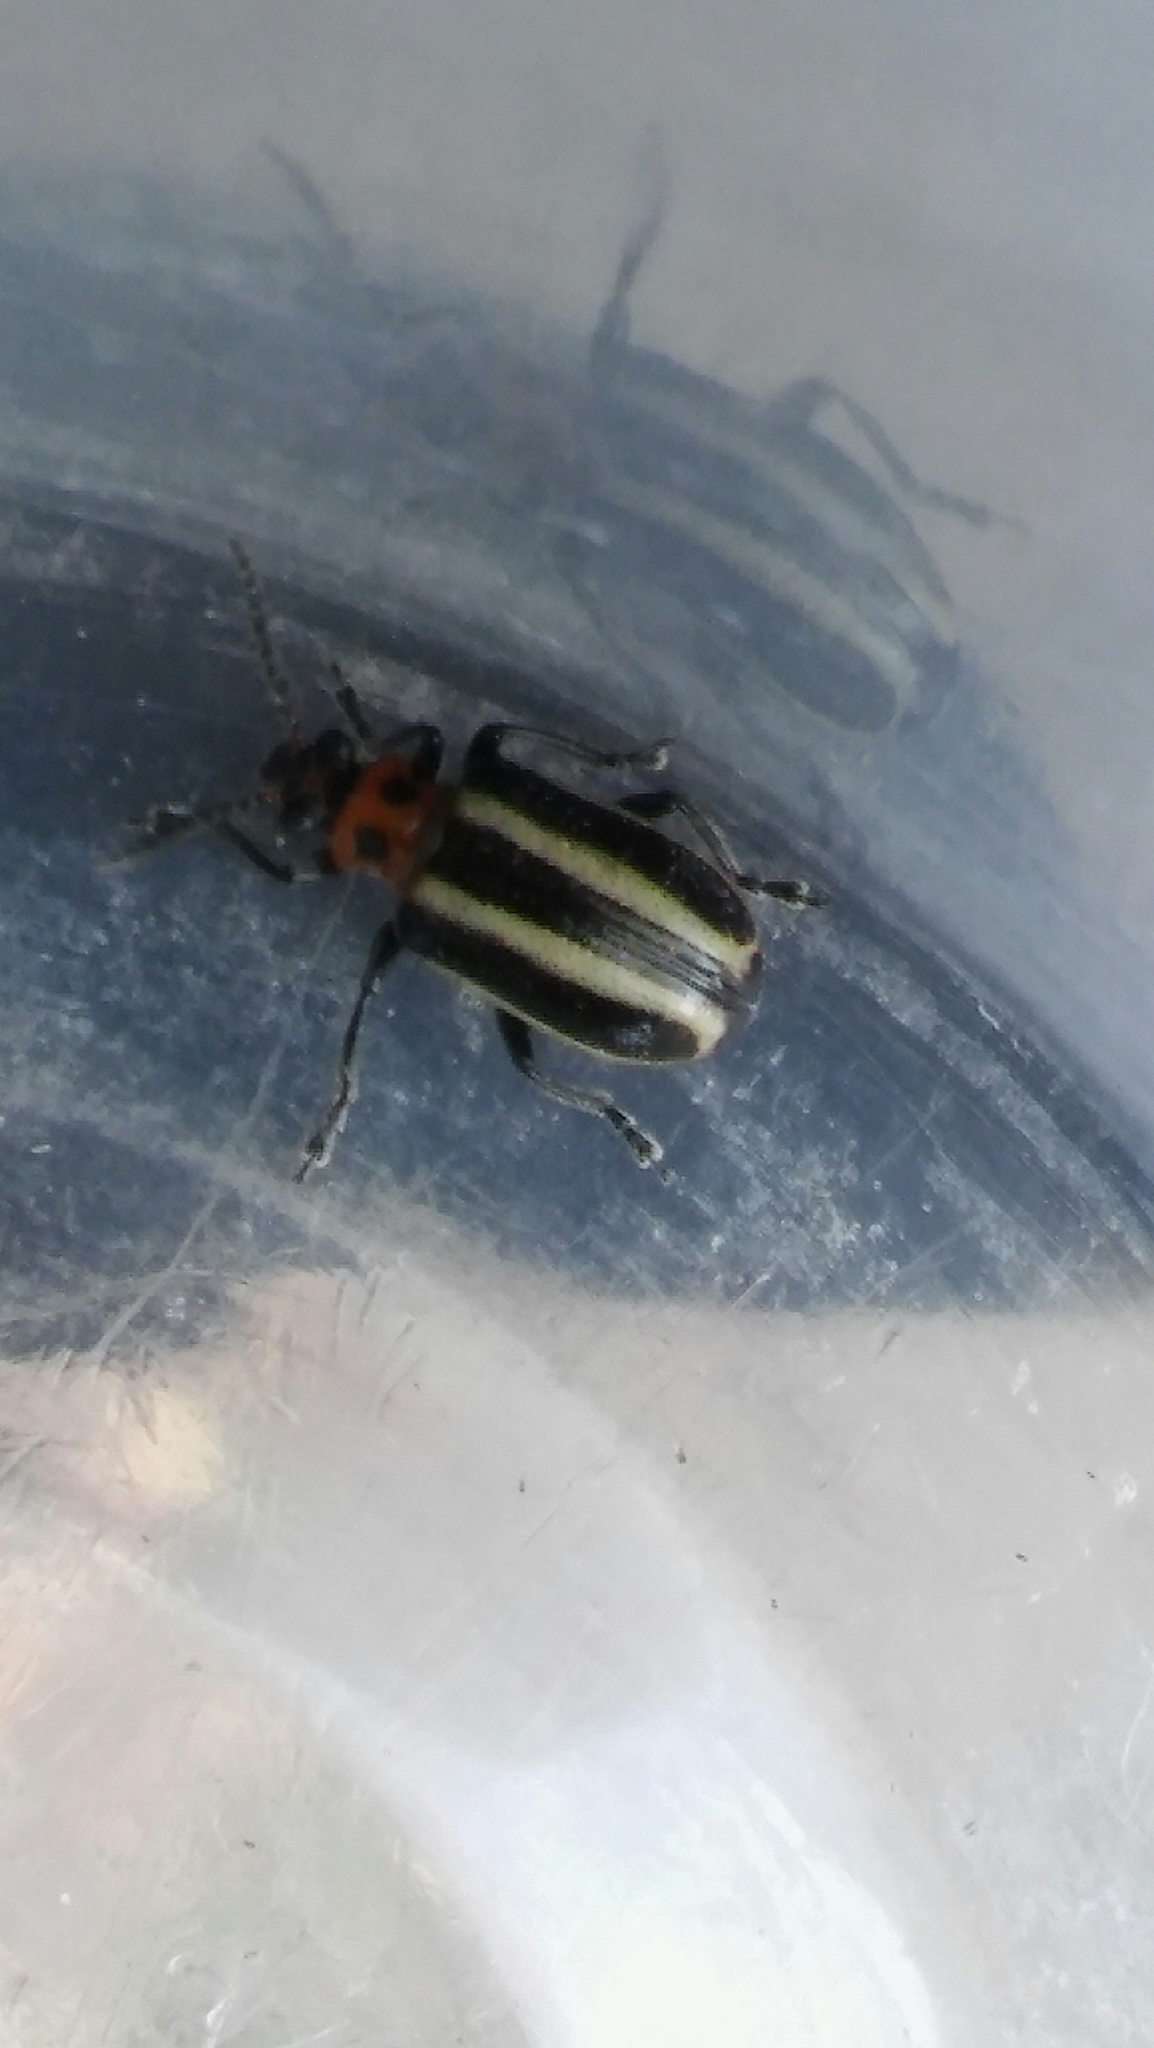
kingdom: Animalia
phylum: Arthropoda
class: Insecta
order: Coleoptera
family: Chrysomelidae
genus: Lema
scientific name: Lema bilineata
